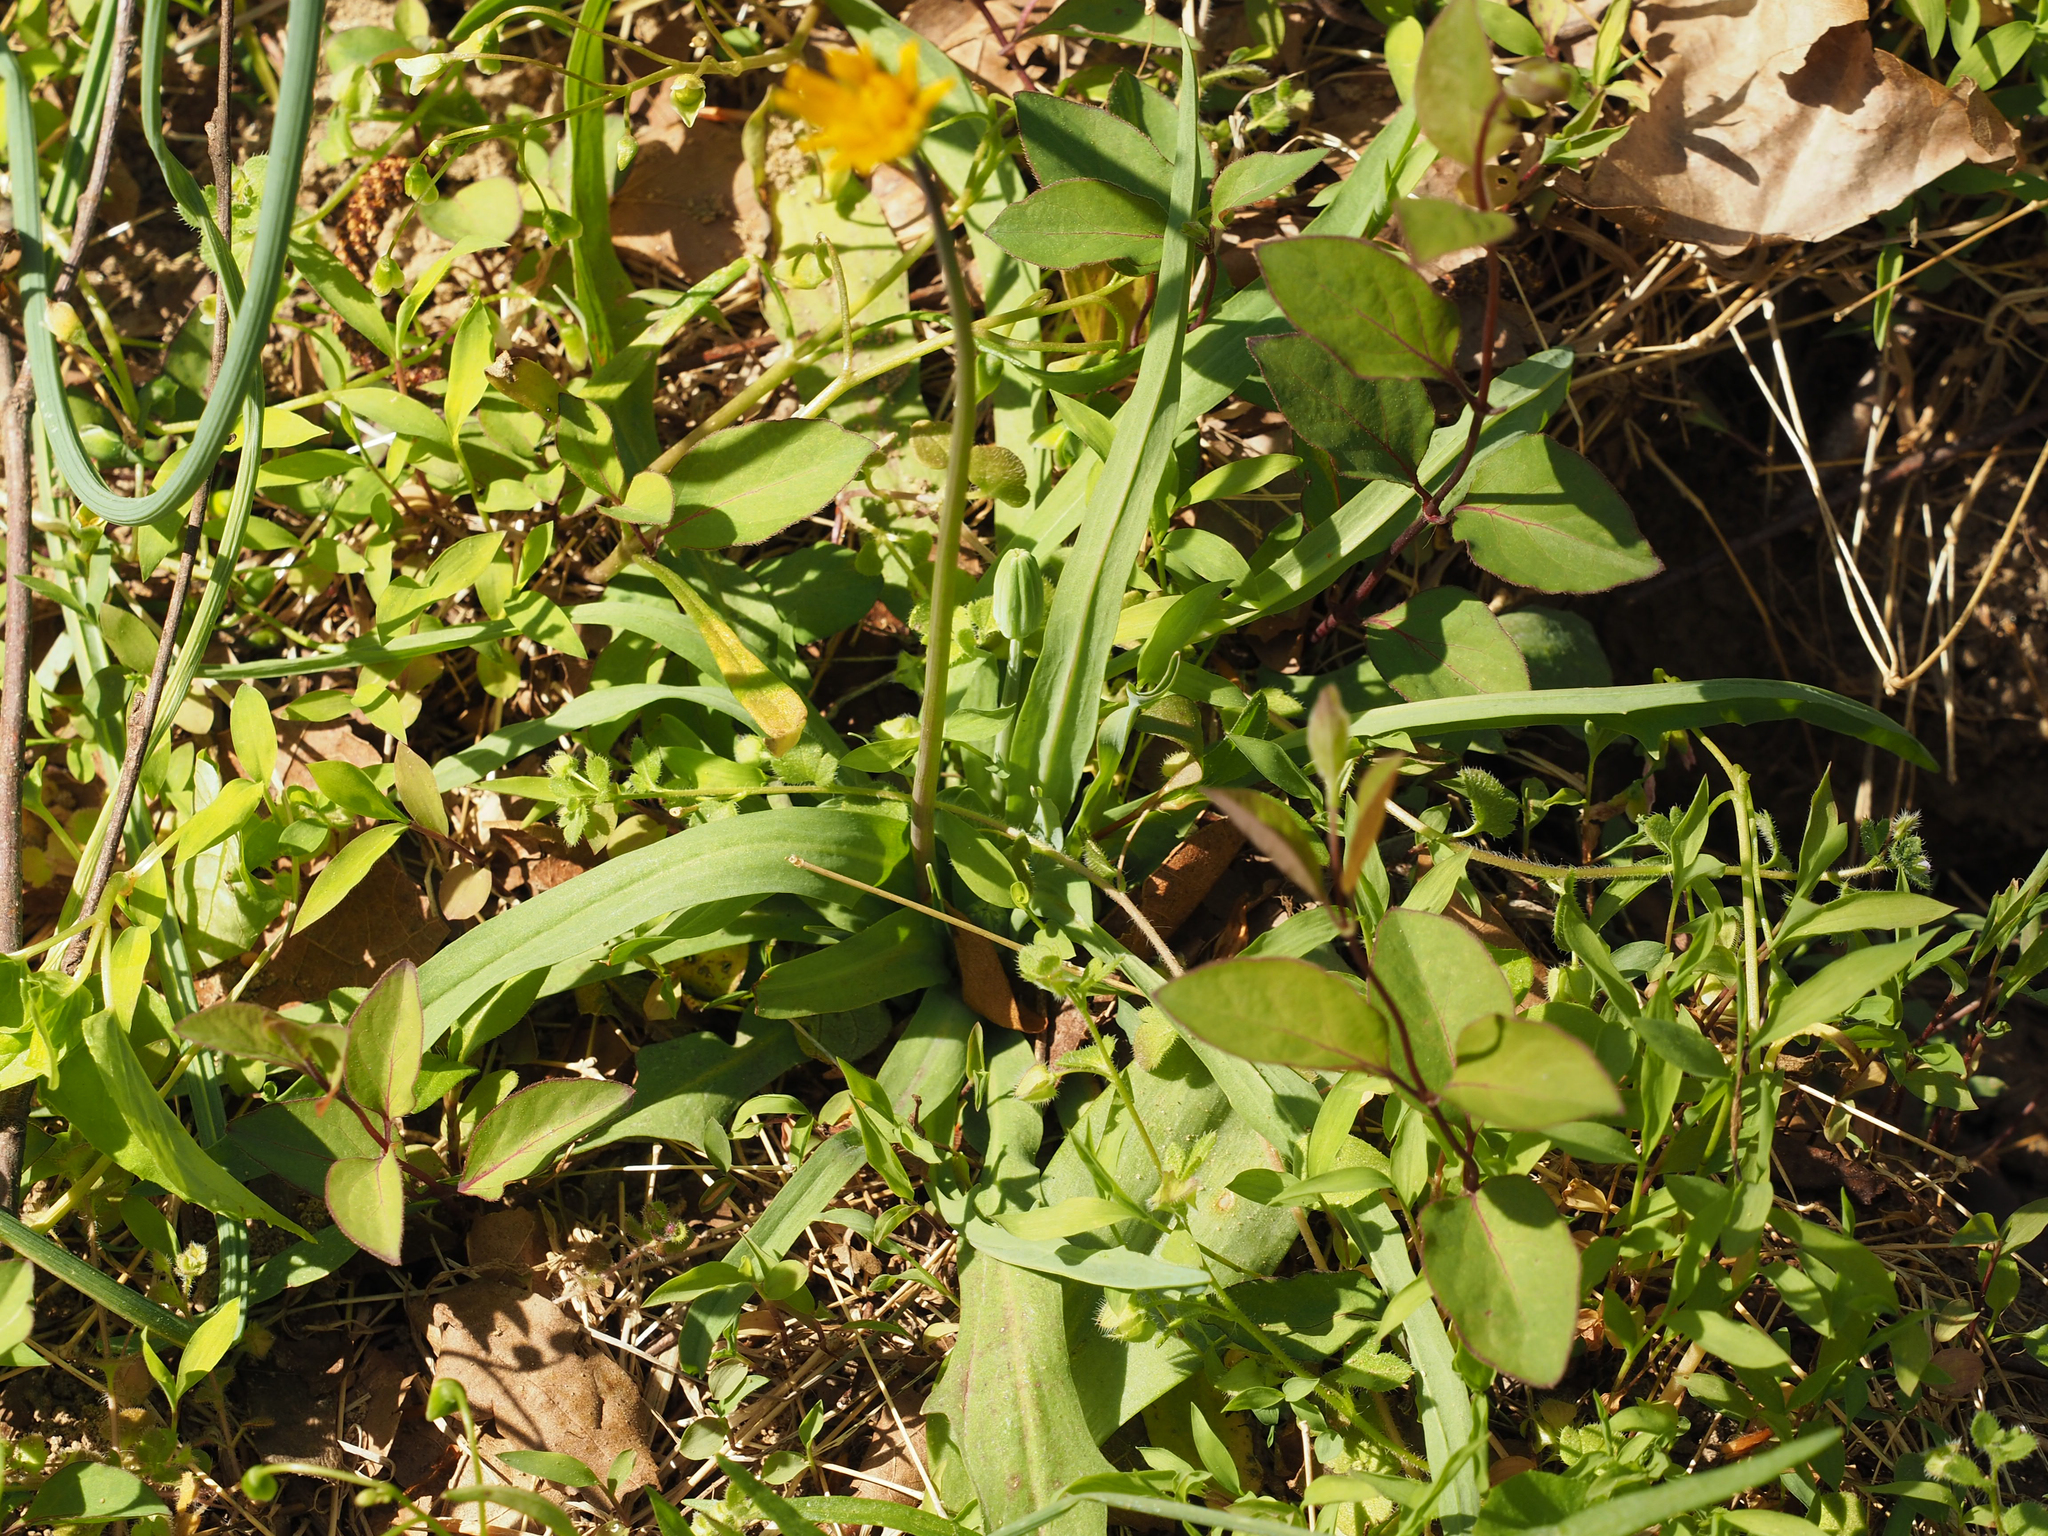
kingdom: Plantae
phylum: Tracheophyta
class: Magnoliopsida
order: Asterales
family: Asteraceae
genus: Krigia
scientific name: Krigia dandelion
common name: Colonial dwarf-dandelion
